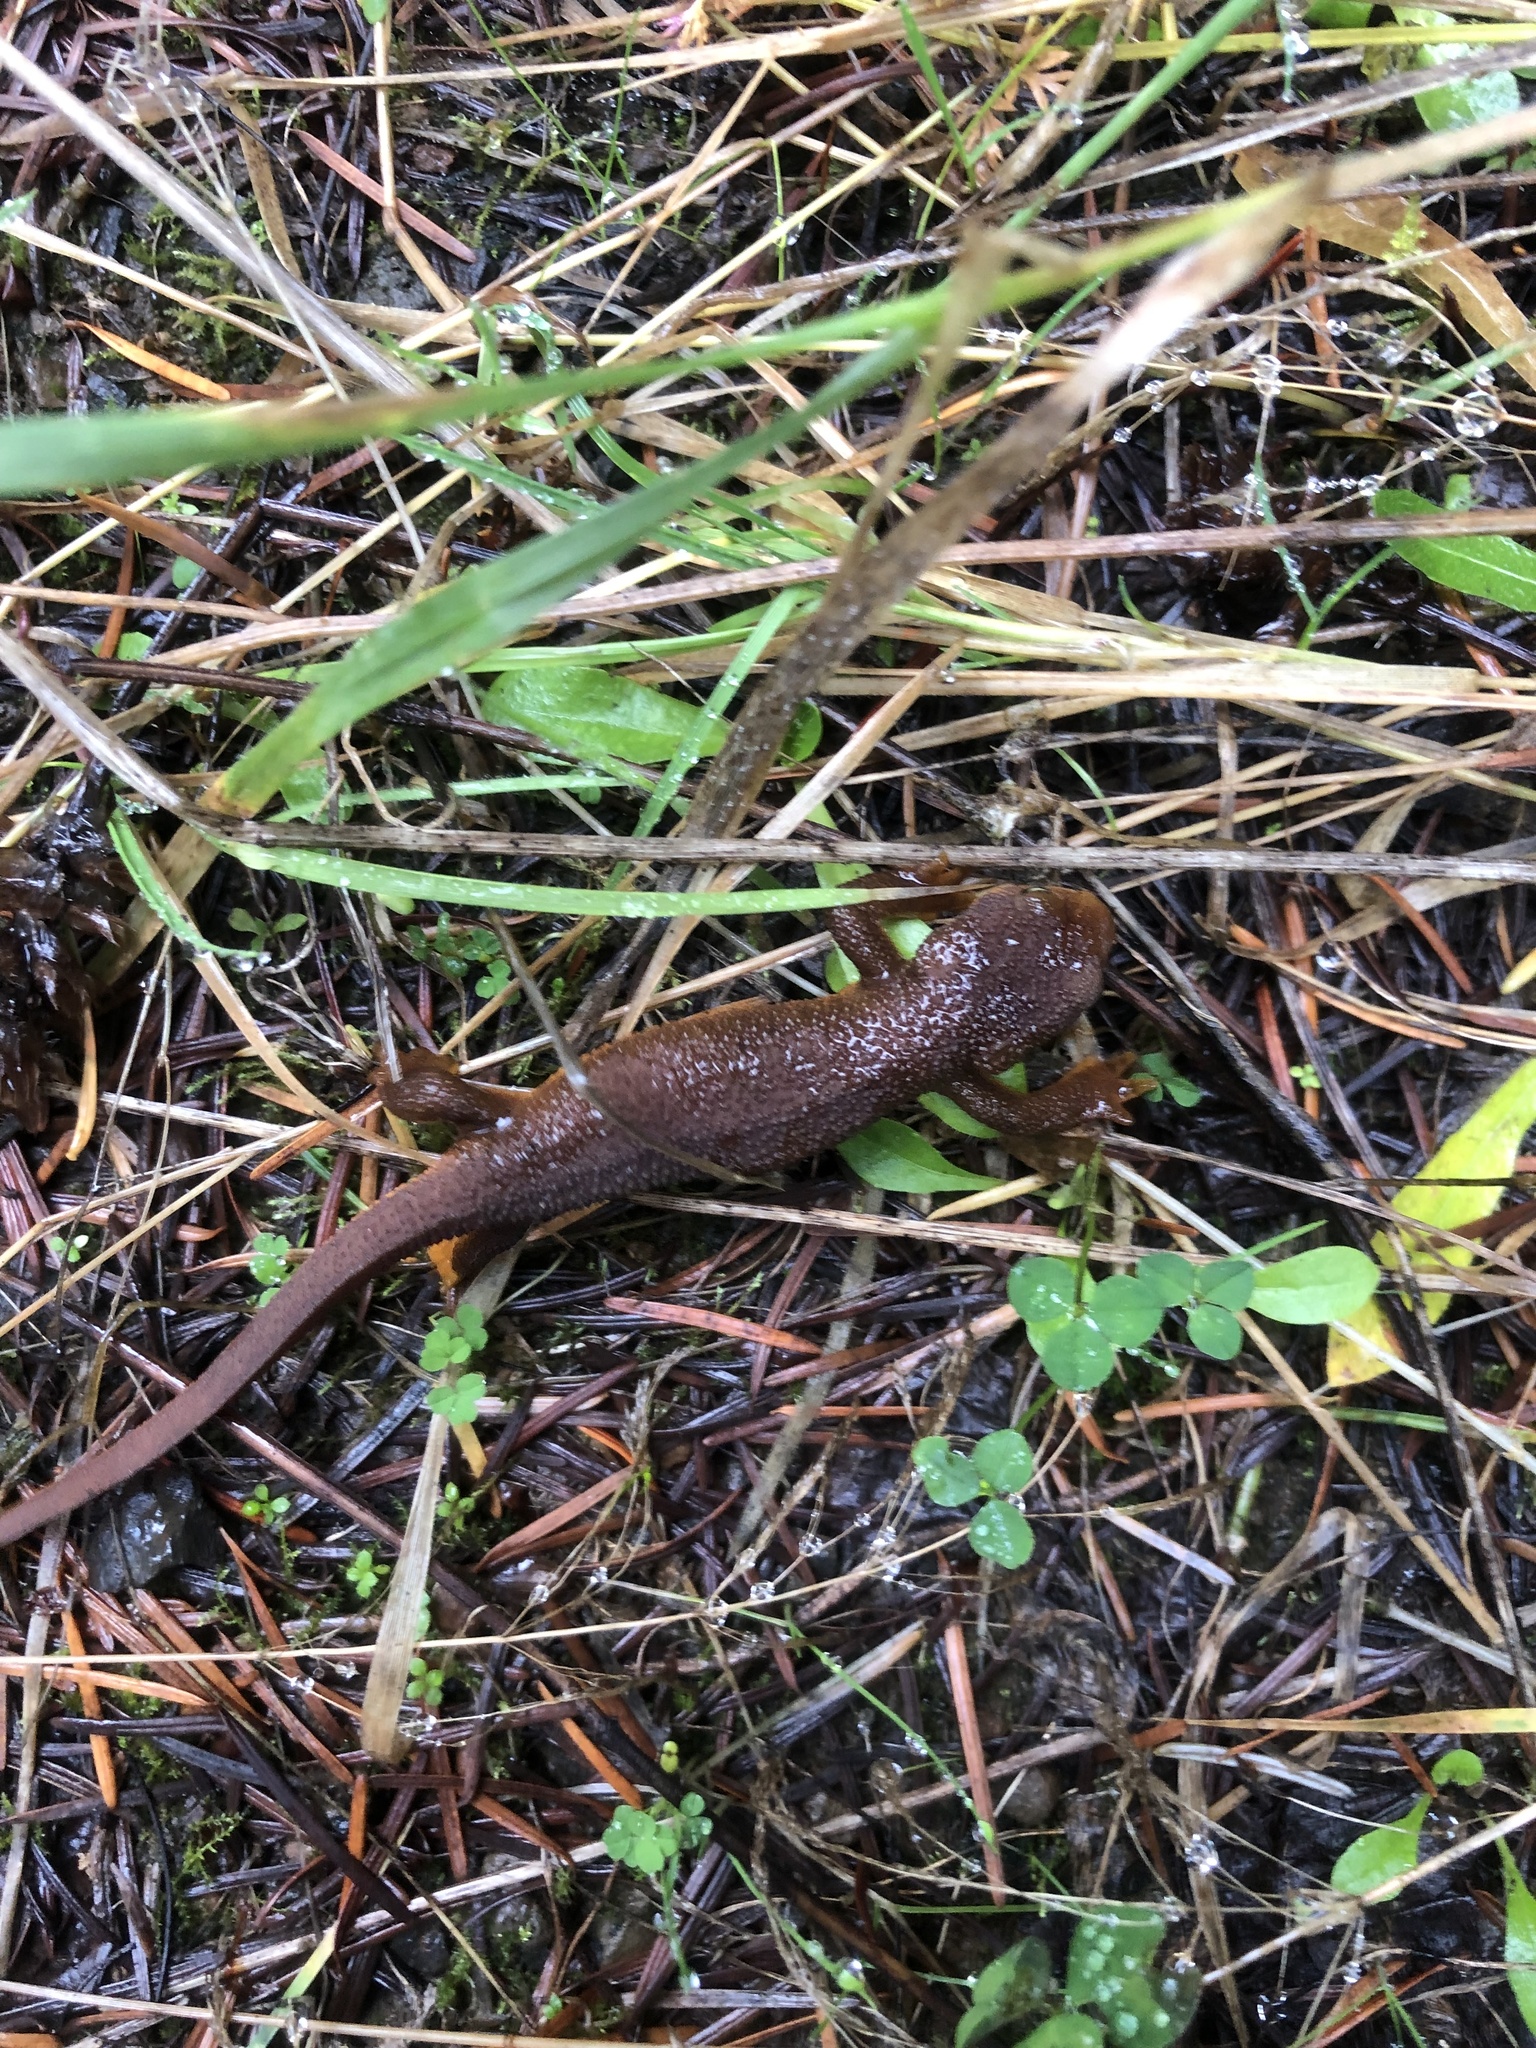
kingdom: Animalia
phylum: Chordata
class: Amphibia
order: Caudata
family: Salamandridae
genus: Taricha
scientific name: Taricha granulosa
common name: Roughskin newt
